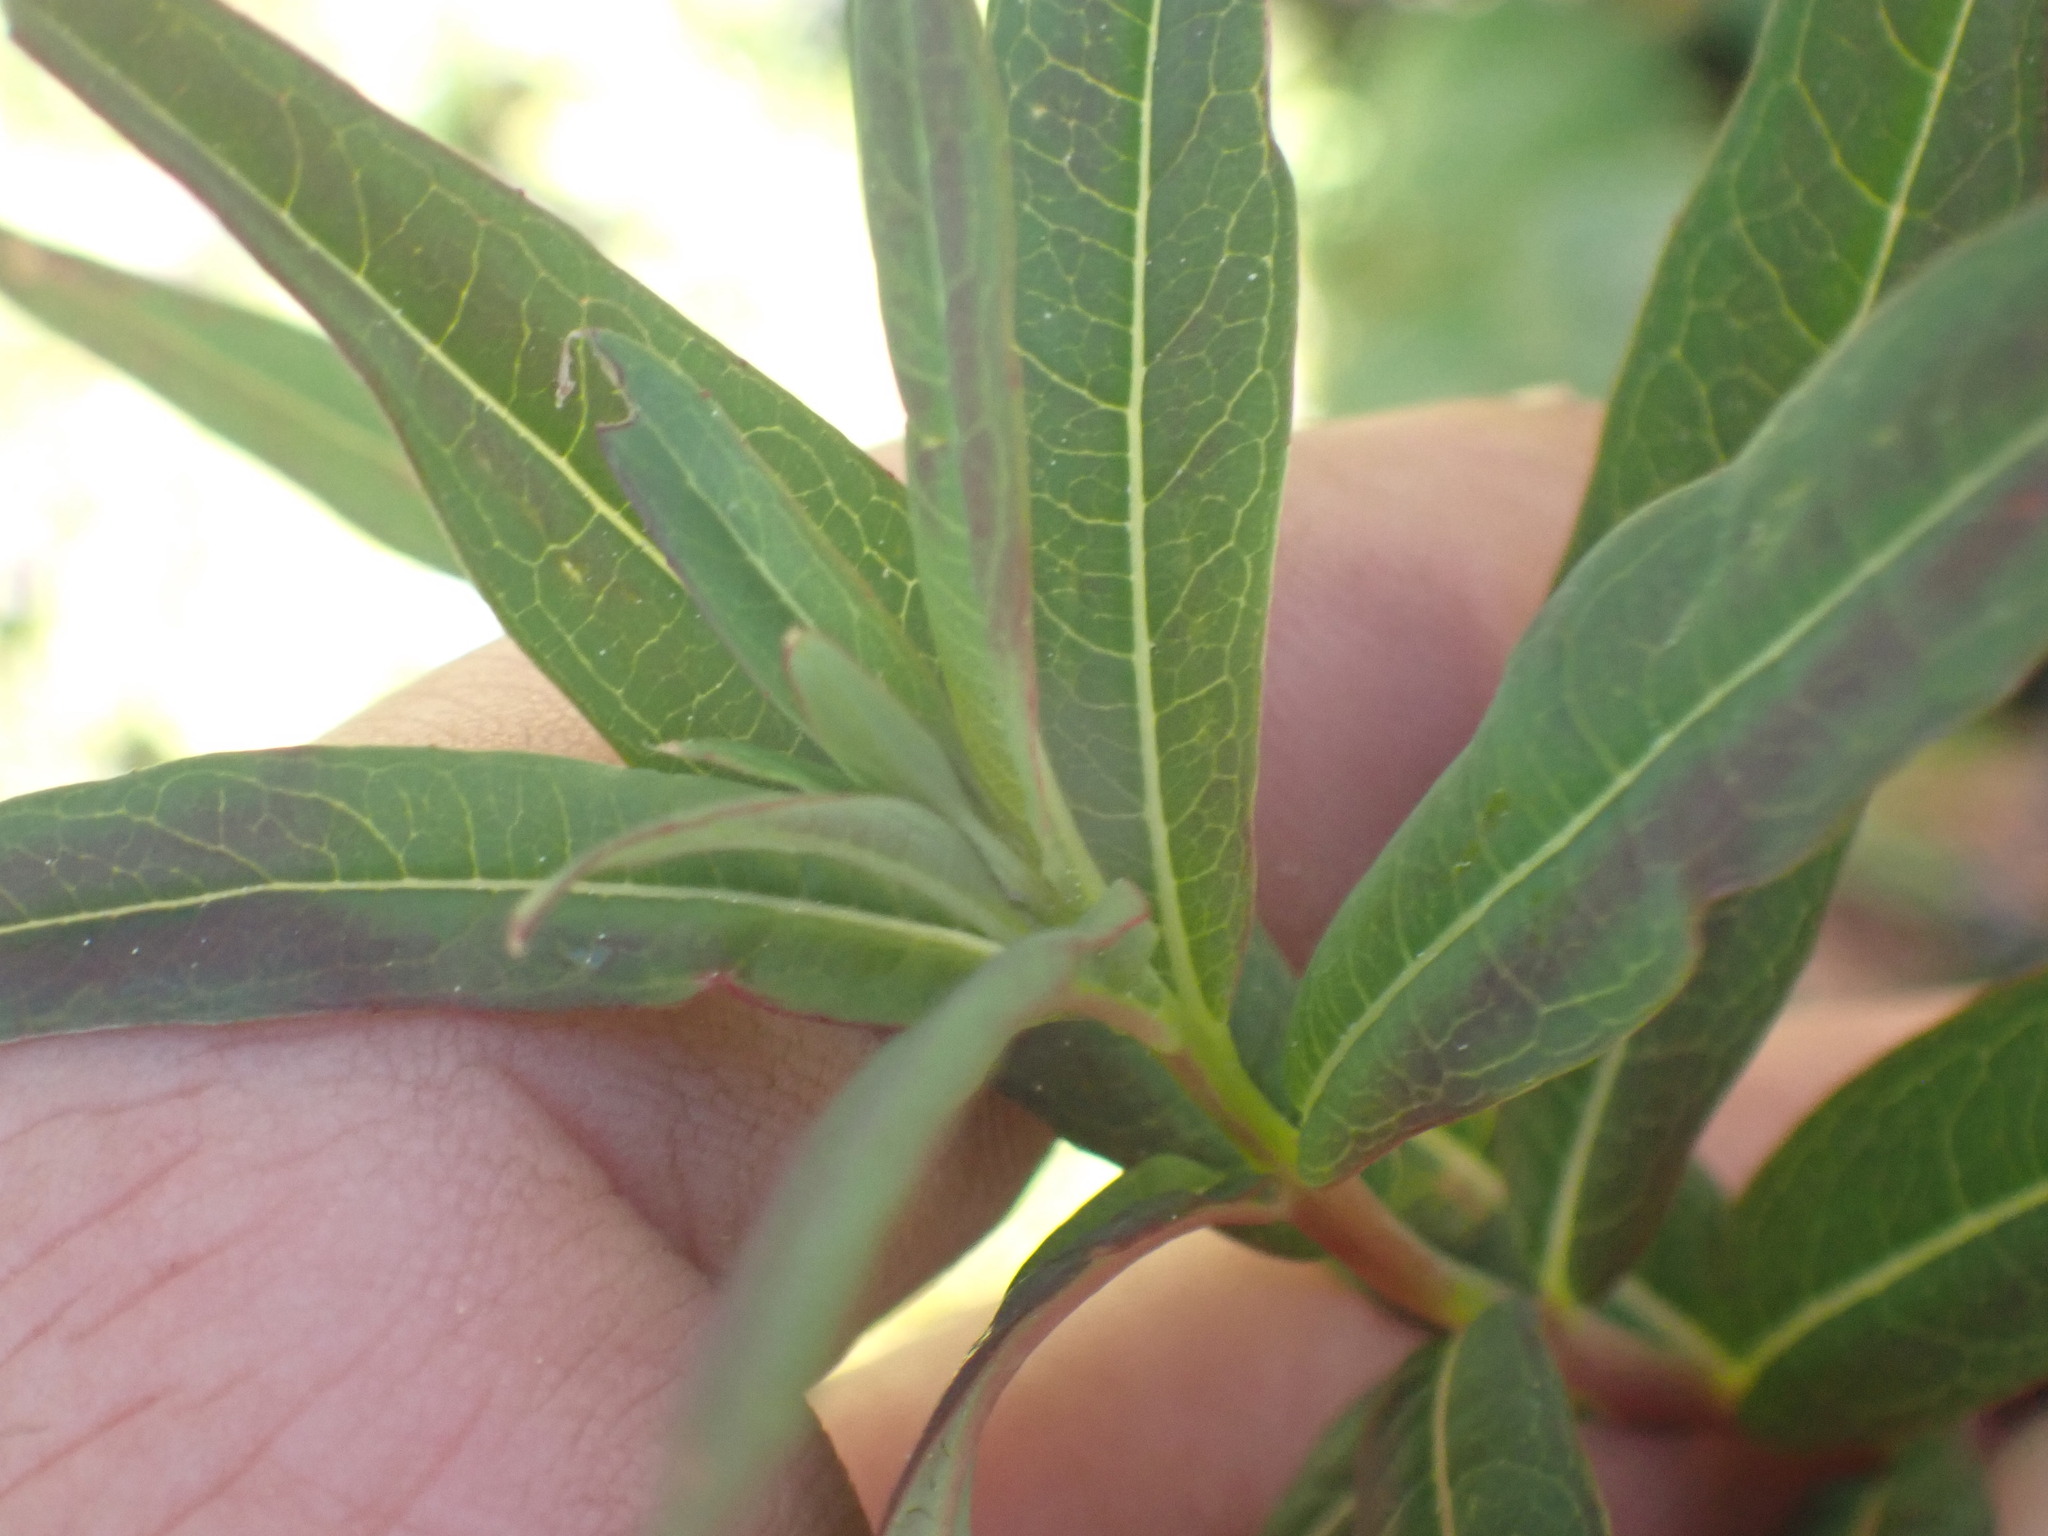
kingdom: Plantae
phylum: Tracheophyta
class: Magnoliopsida
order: Myrtales
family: Onagraceae
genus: Chamaenerion
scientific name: Chamaenerion angustifolium
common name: Fireweed
